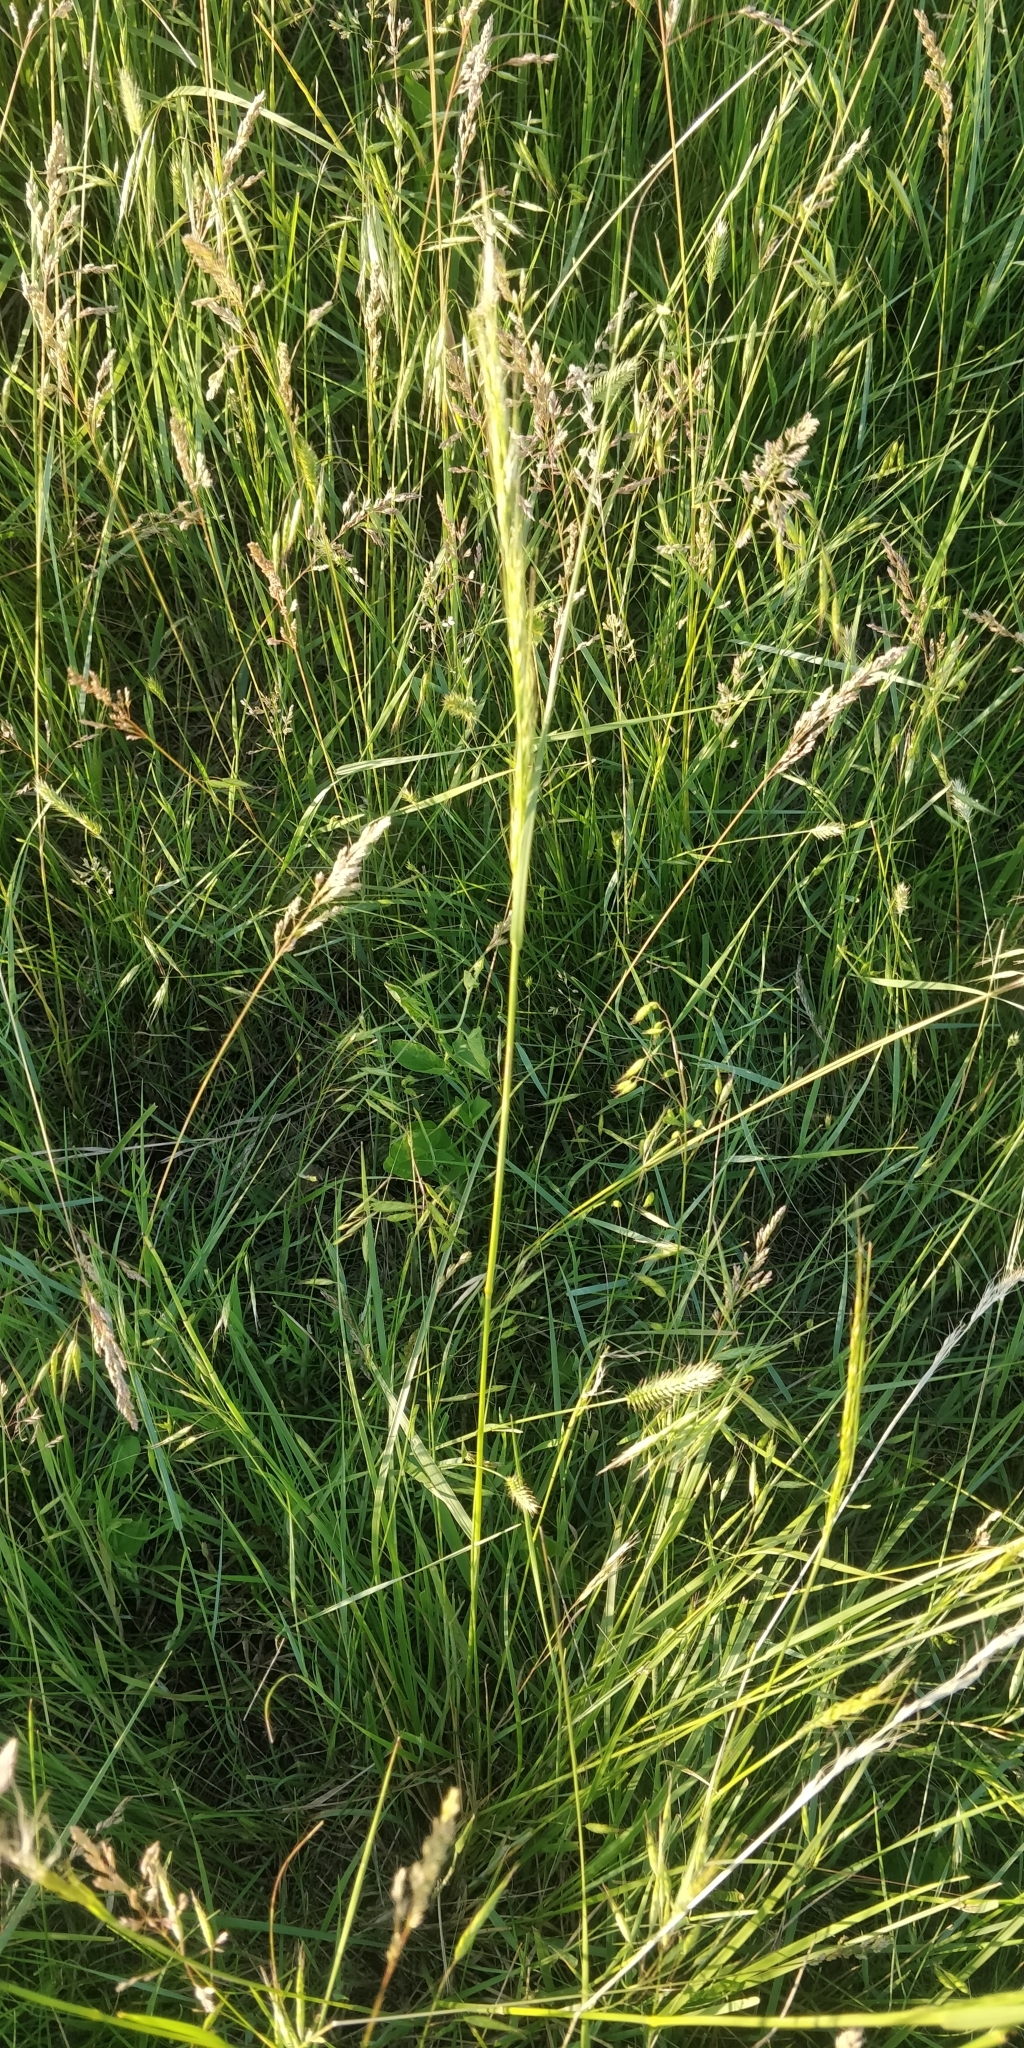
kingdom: Plantae
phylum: Tracheophyta
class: Liliopsida
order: Poales
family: Poaceae
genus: Nassella
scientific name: Nassella viridula
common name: Green needlegrass
